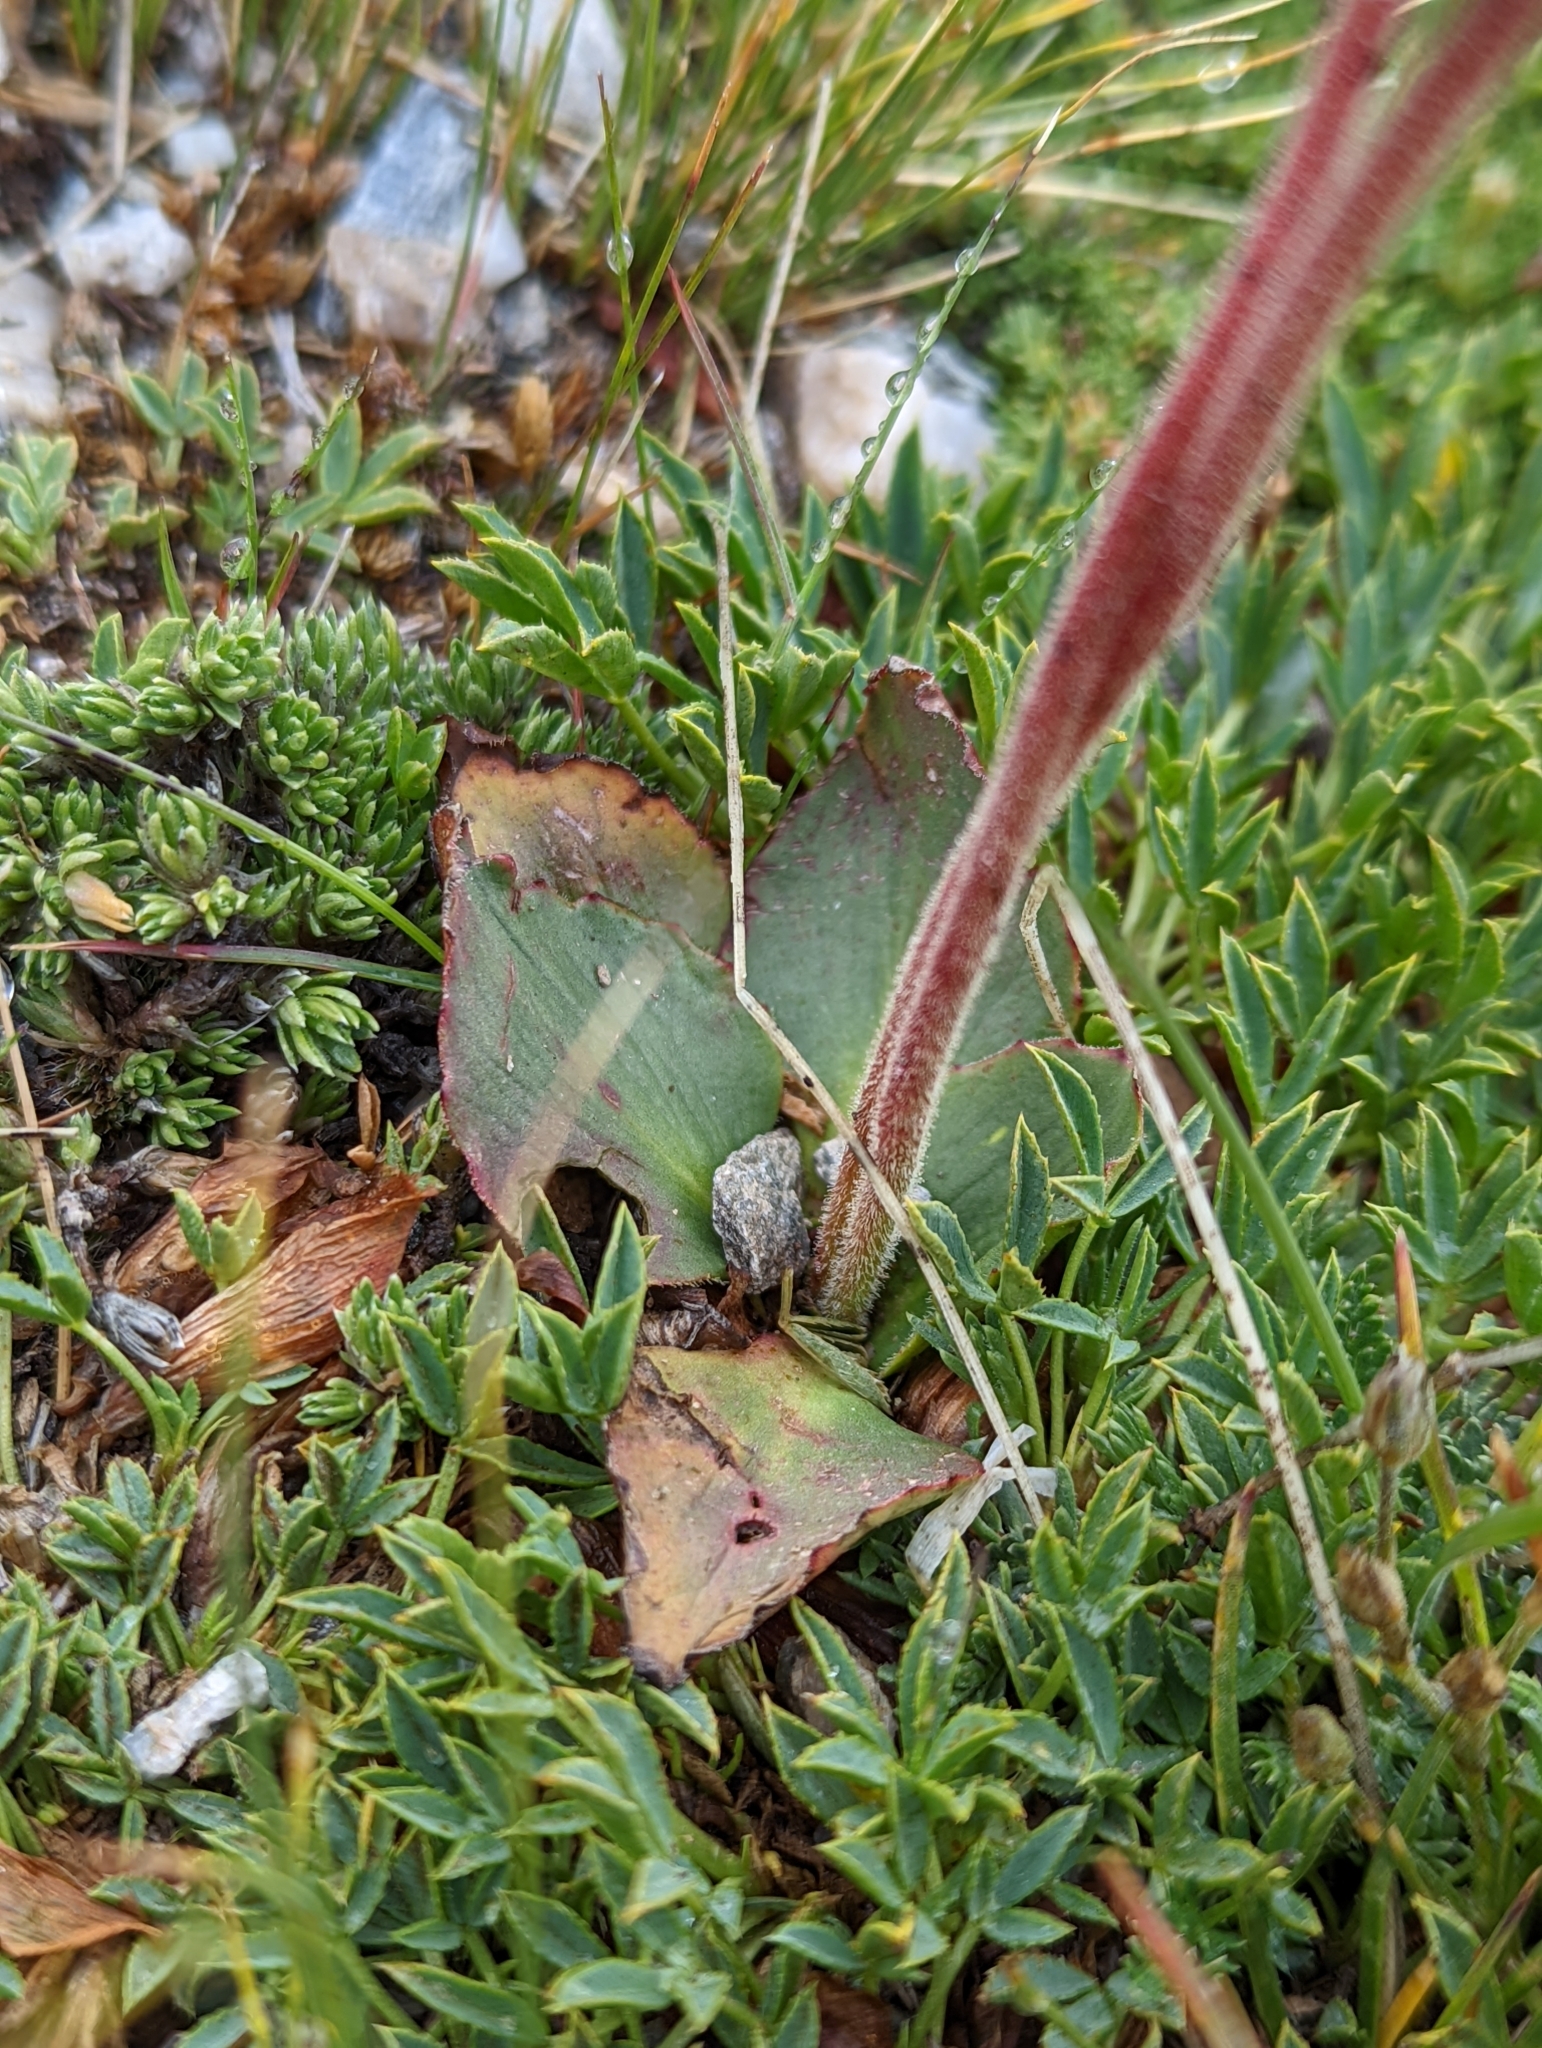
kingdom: Plantae
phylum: Tracheophyta
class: Magnoliopsida
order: Saxifragales
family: Saxifragaceae
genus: Micranthes
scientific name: Micranthes rhomboidea
